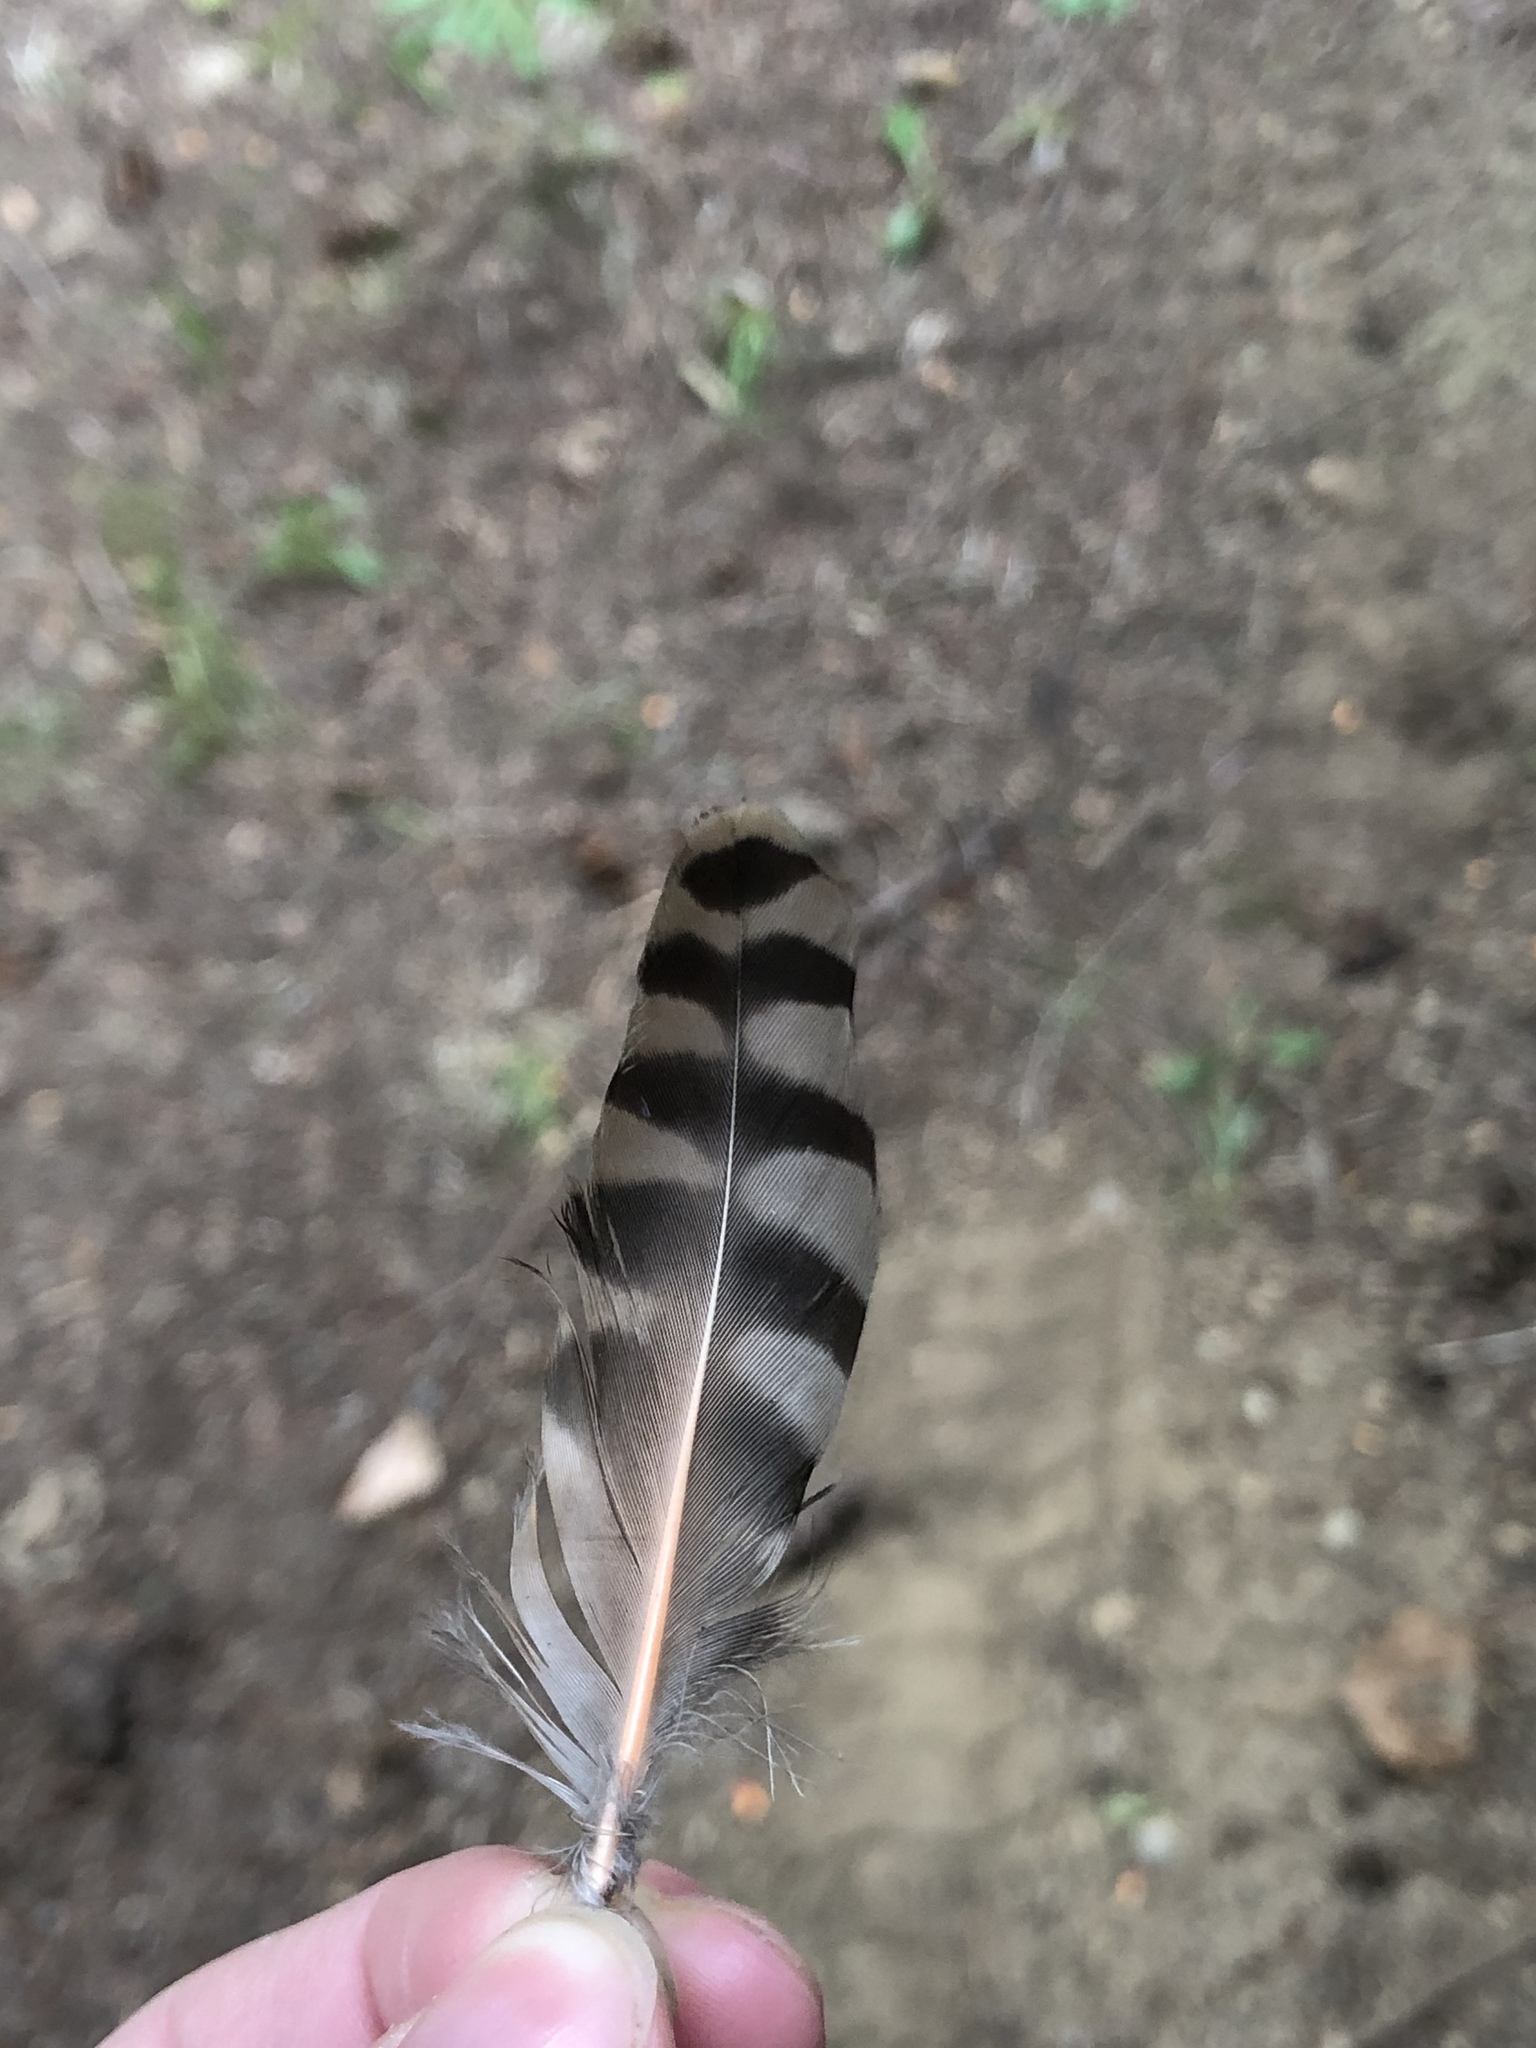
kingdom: Animalia
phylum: Chordata
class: Aves
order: Piciformes
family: Picidae
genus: Colaptes
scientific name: Colaptes auratus
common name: Northern flicker
